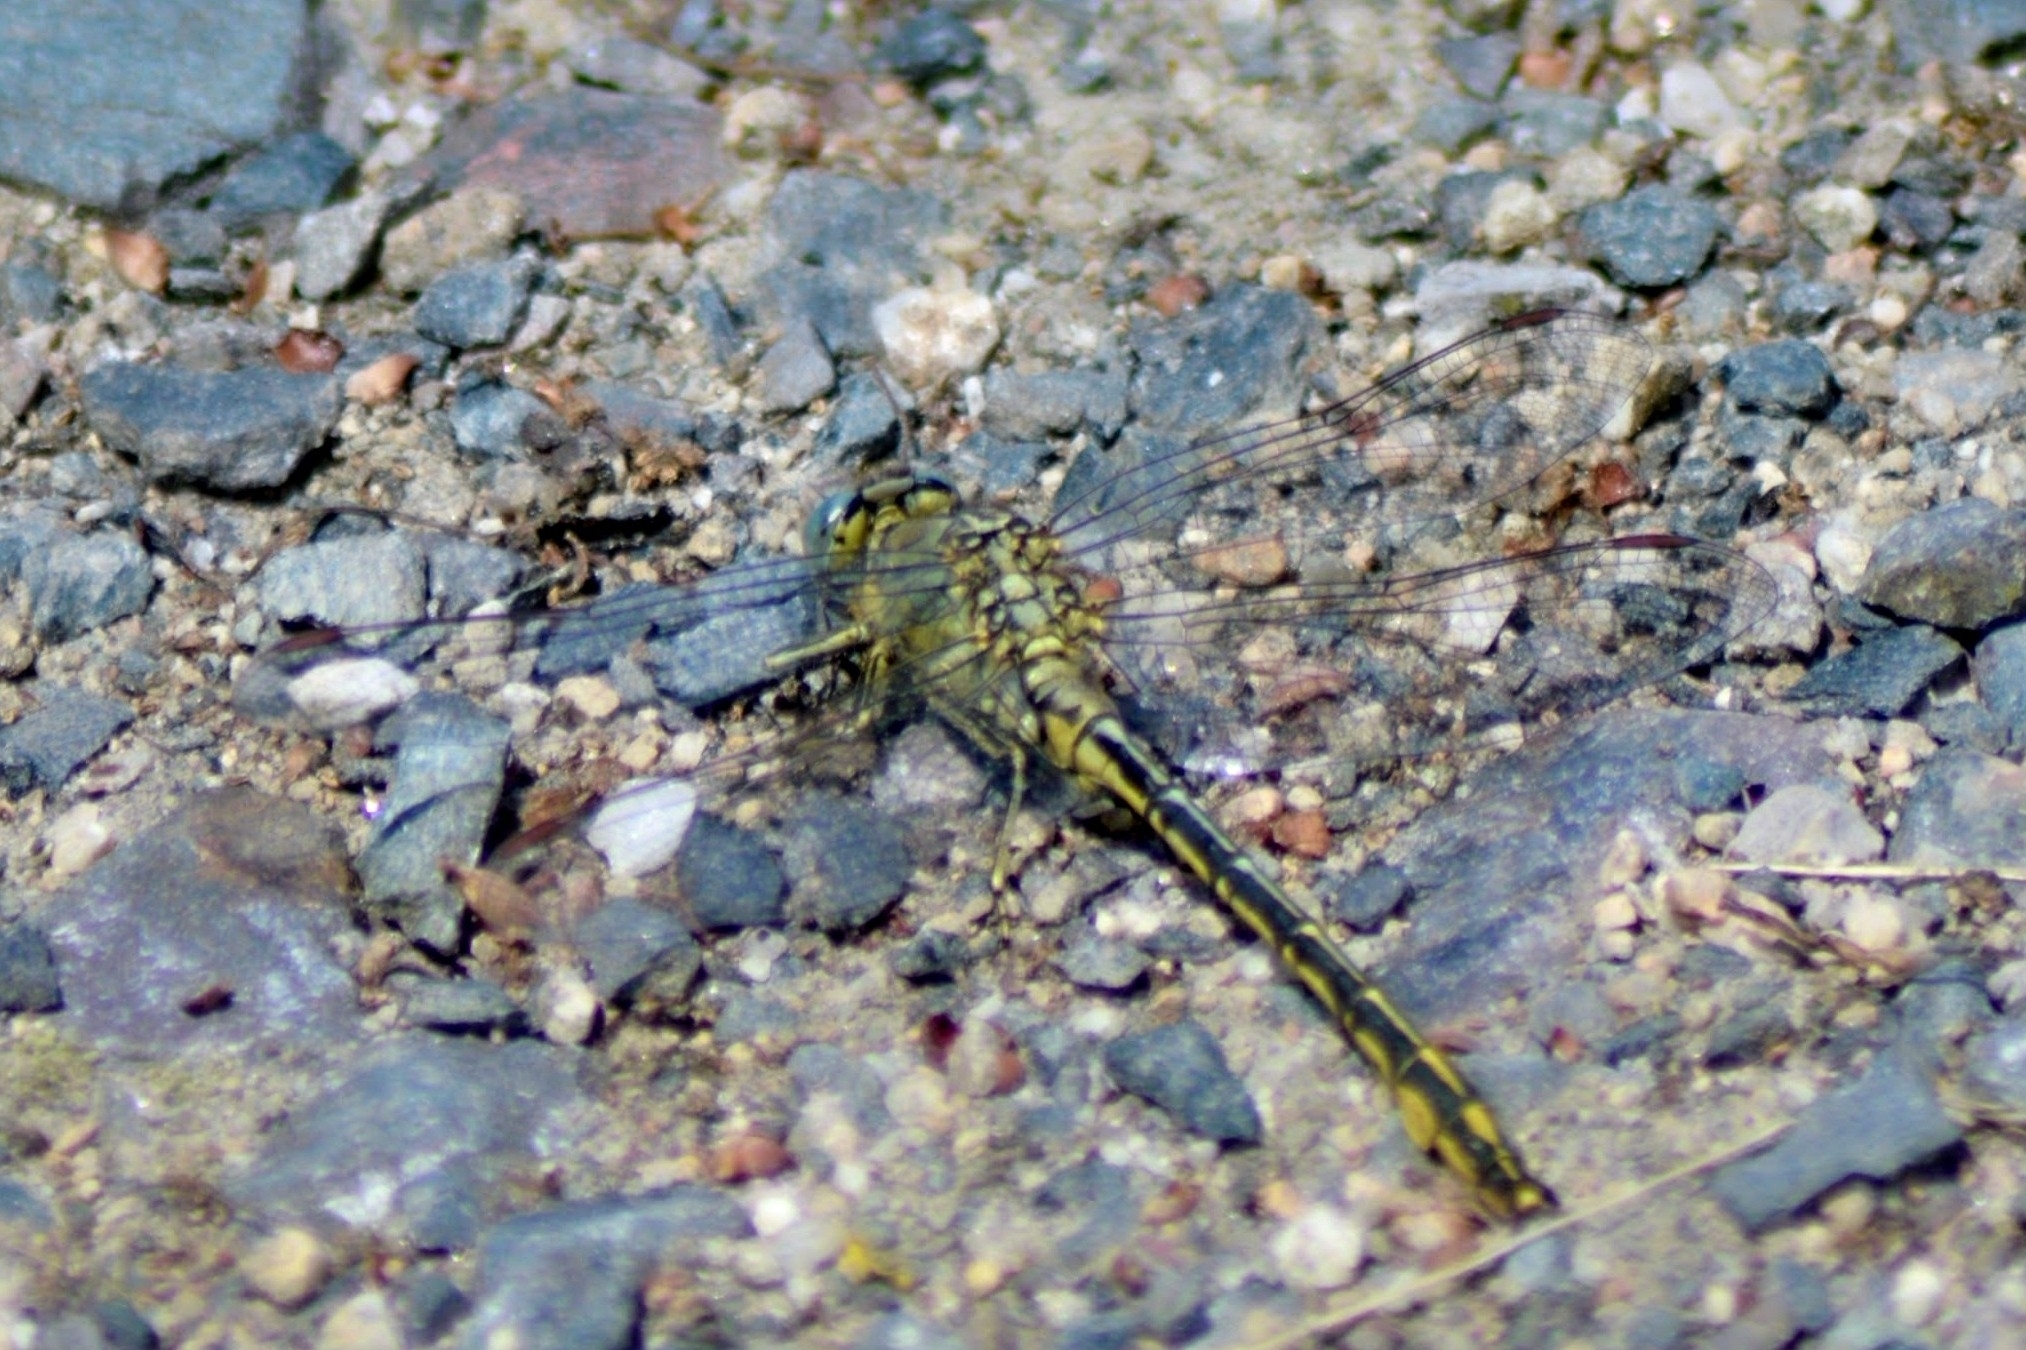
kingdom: Animalia
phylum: Arthropoda
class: Insecta
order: Odonata
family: Gomphidae
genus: Gomphus
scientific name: Gomphus pulchellus
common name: Western clubtail
